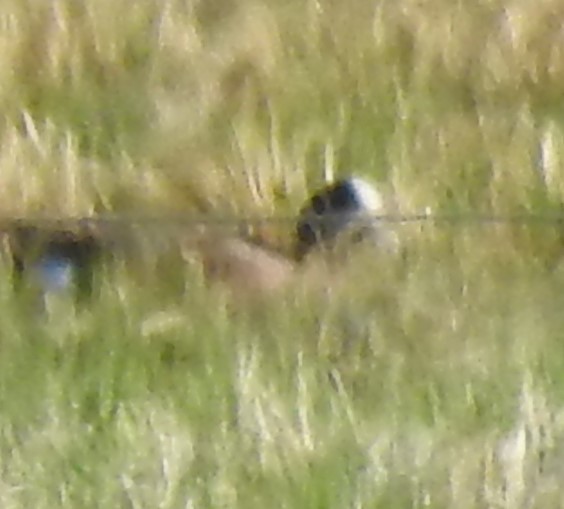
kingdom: Animalia
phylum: Chordata
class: Aves
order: Anseriformes
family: Anatidae
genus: Mareca
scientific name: Mareca americana
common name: American wigeon
